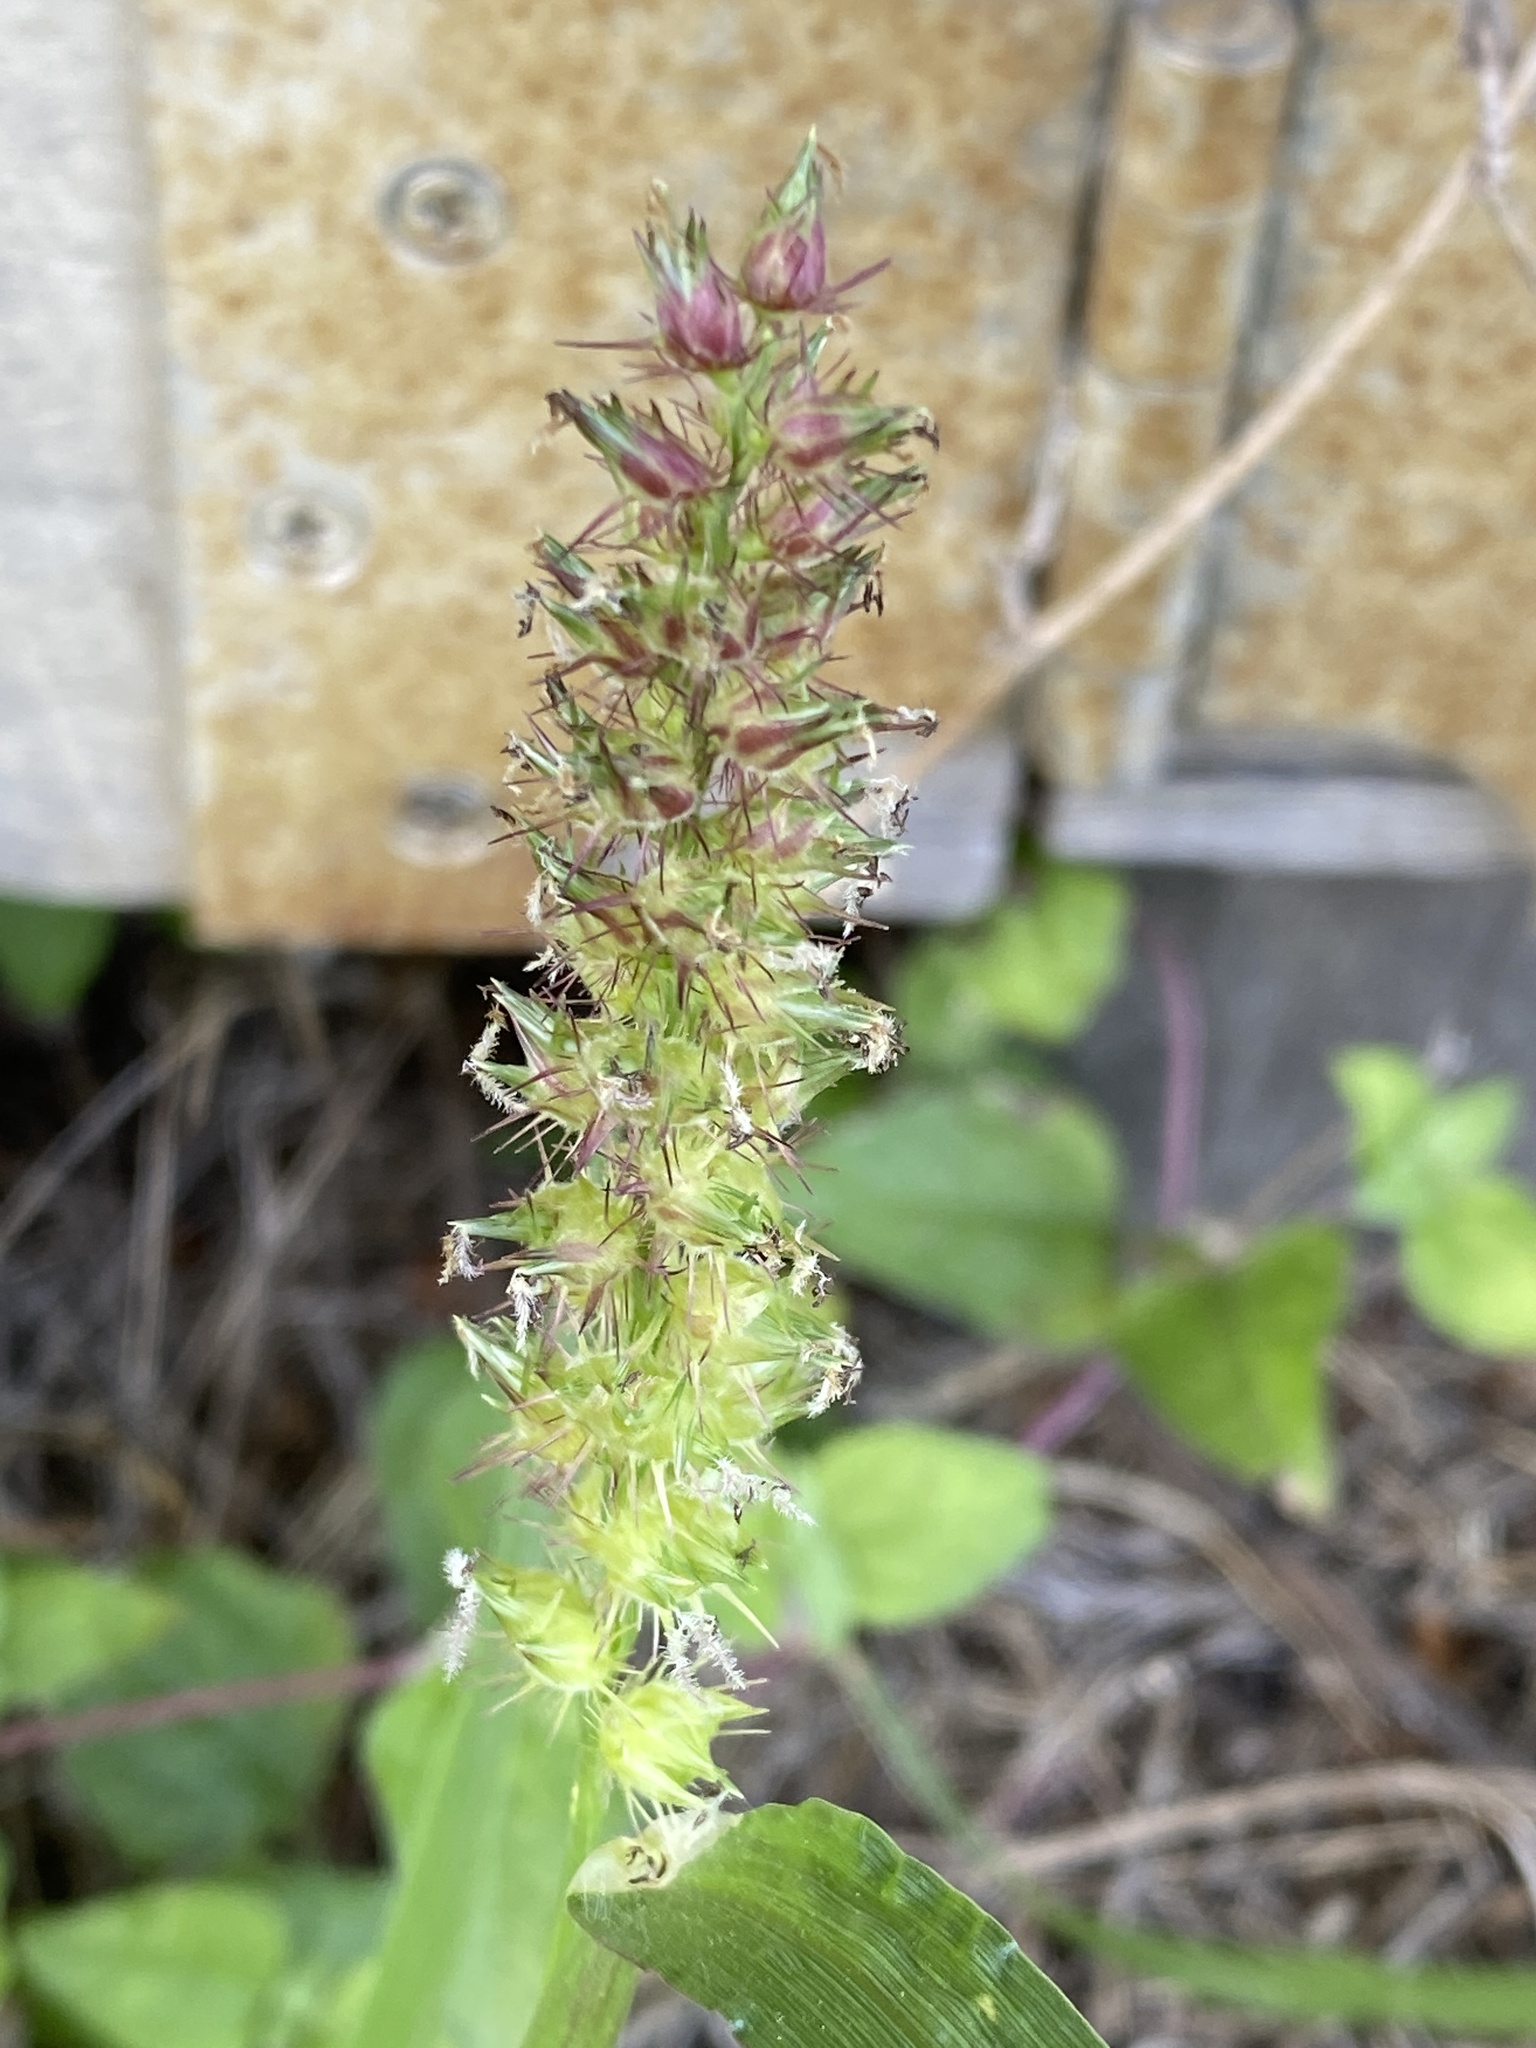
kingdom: Plantae
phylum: Tracheophyta
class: Liliopsida
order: Poales
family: Poaceae
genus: Cenchrus
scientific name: Cenchrus echinatus
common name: Southern sandbur
